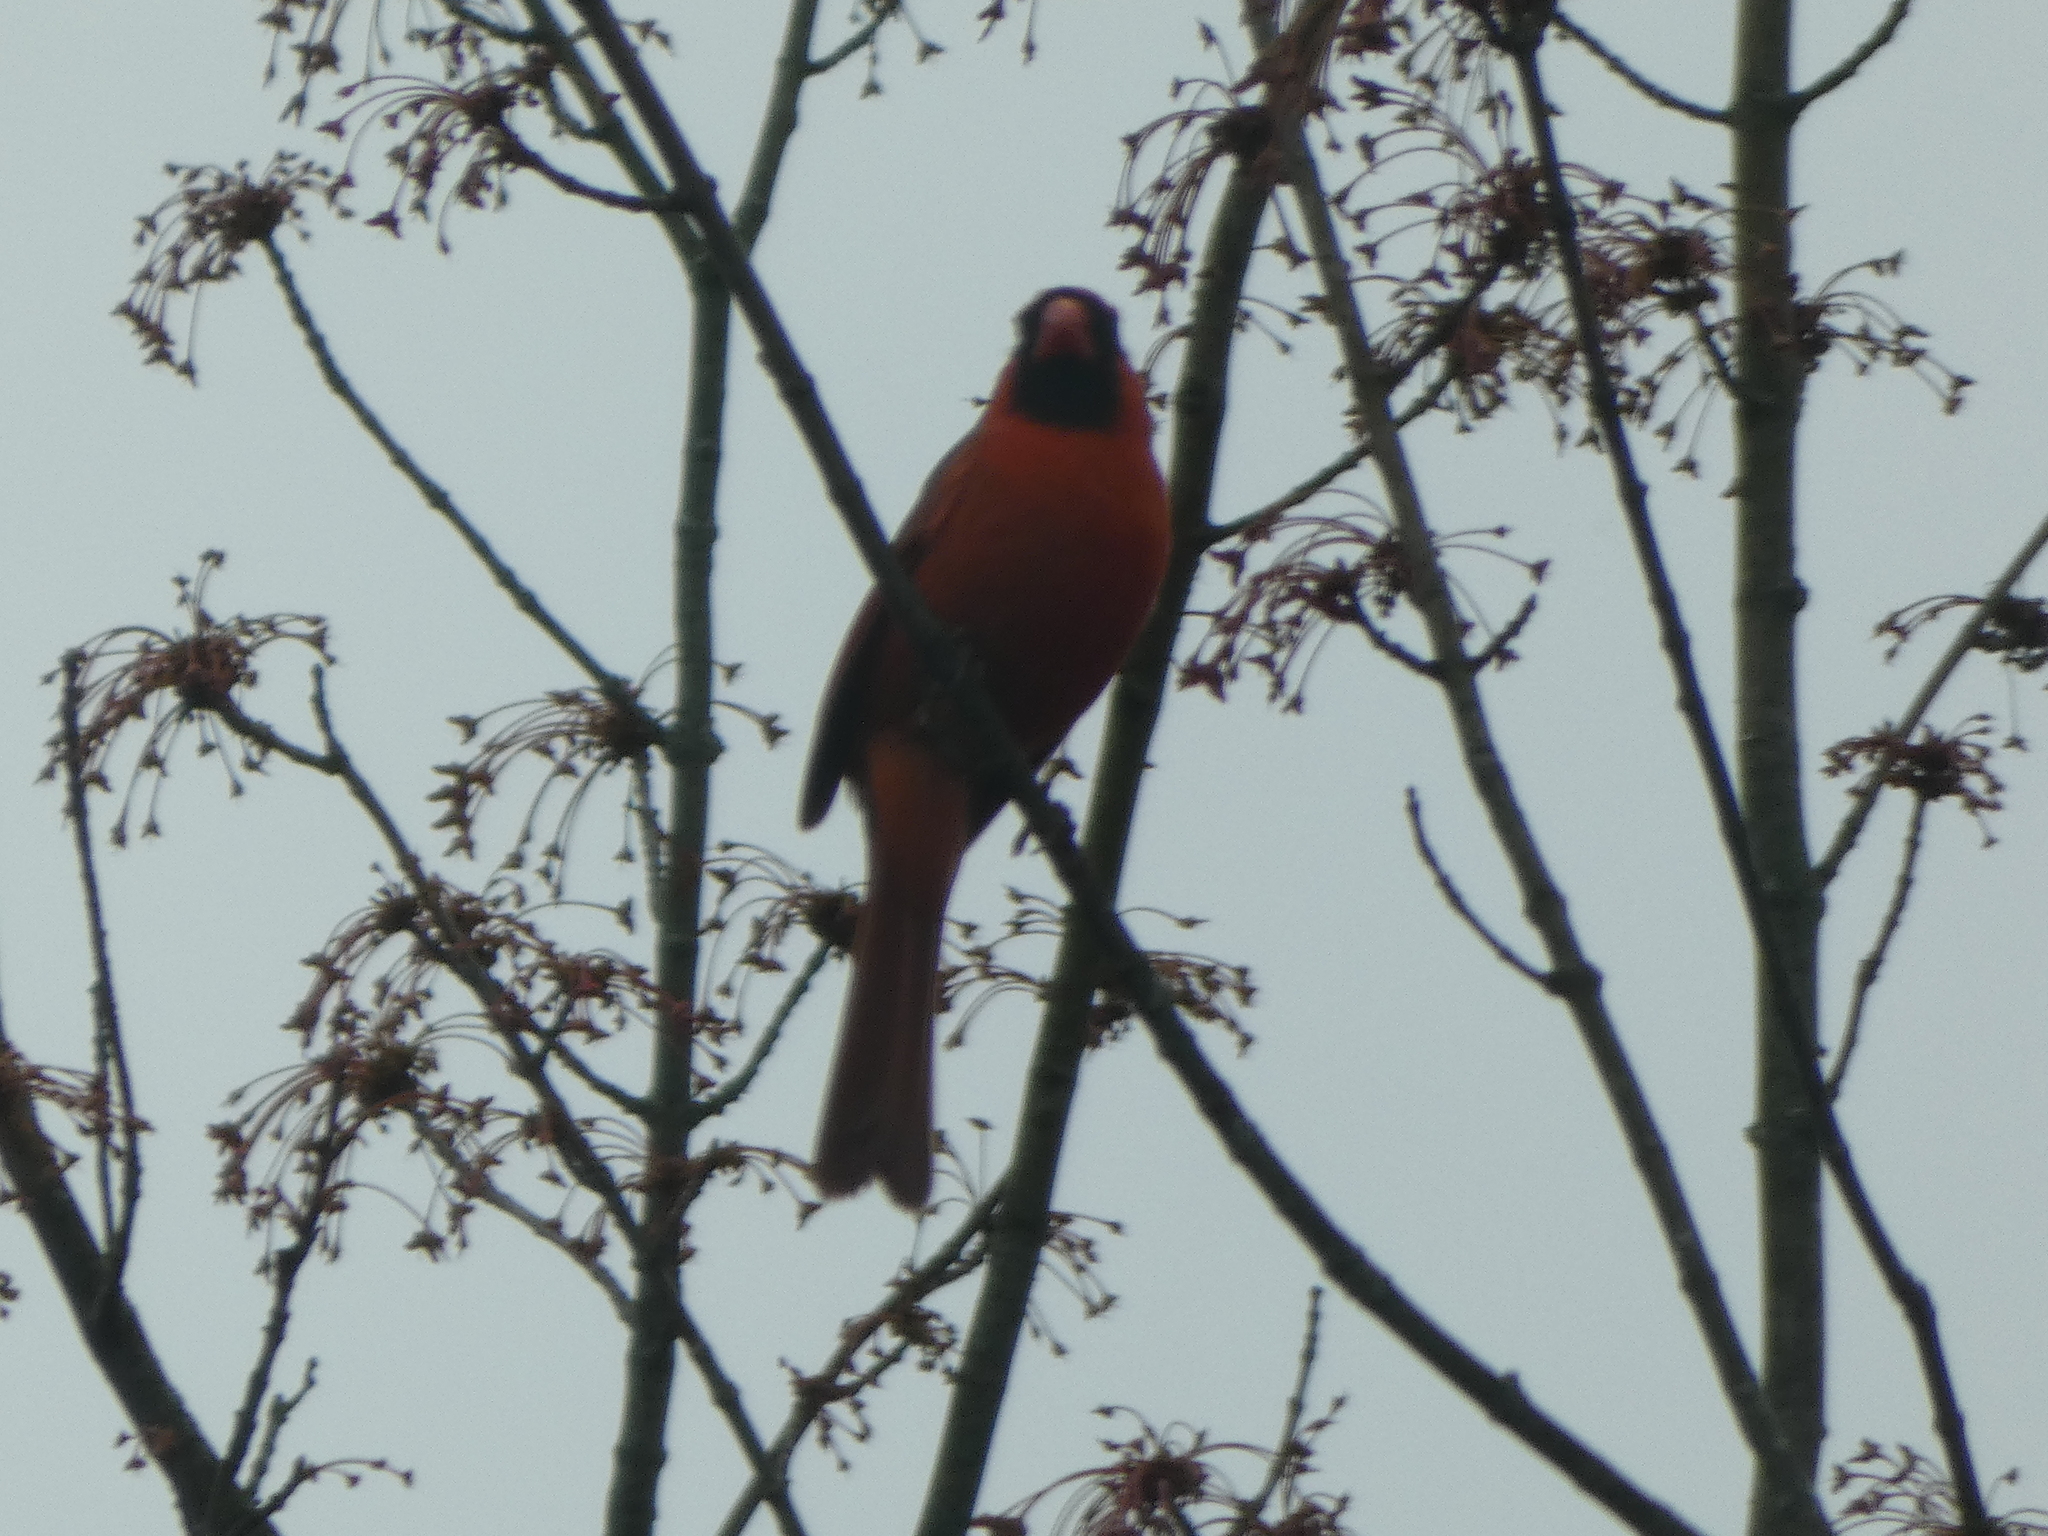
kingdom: Animalia
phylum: Chordata
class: Aves
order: Passeriformes
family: Cardinalidae
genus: Cardinalis
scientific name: Cardinalis cardinalis
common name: Northern cardinal
